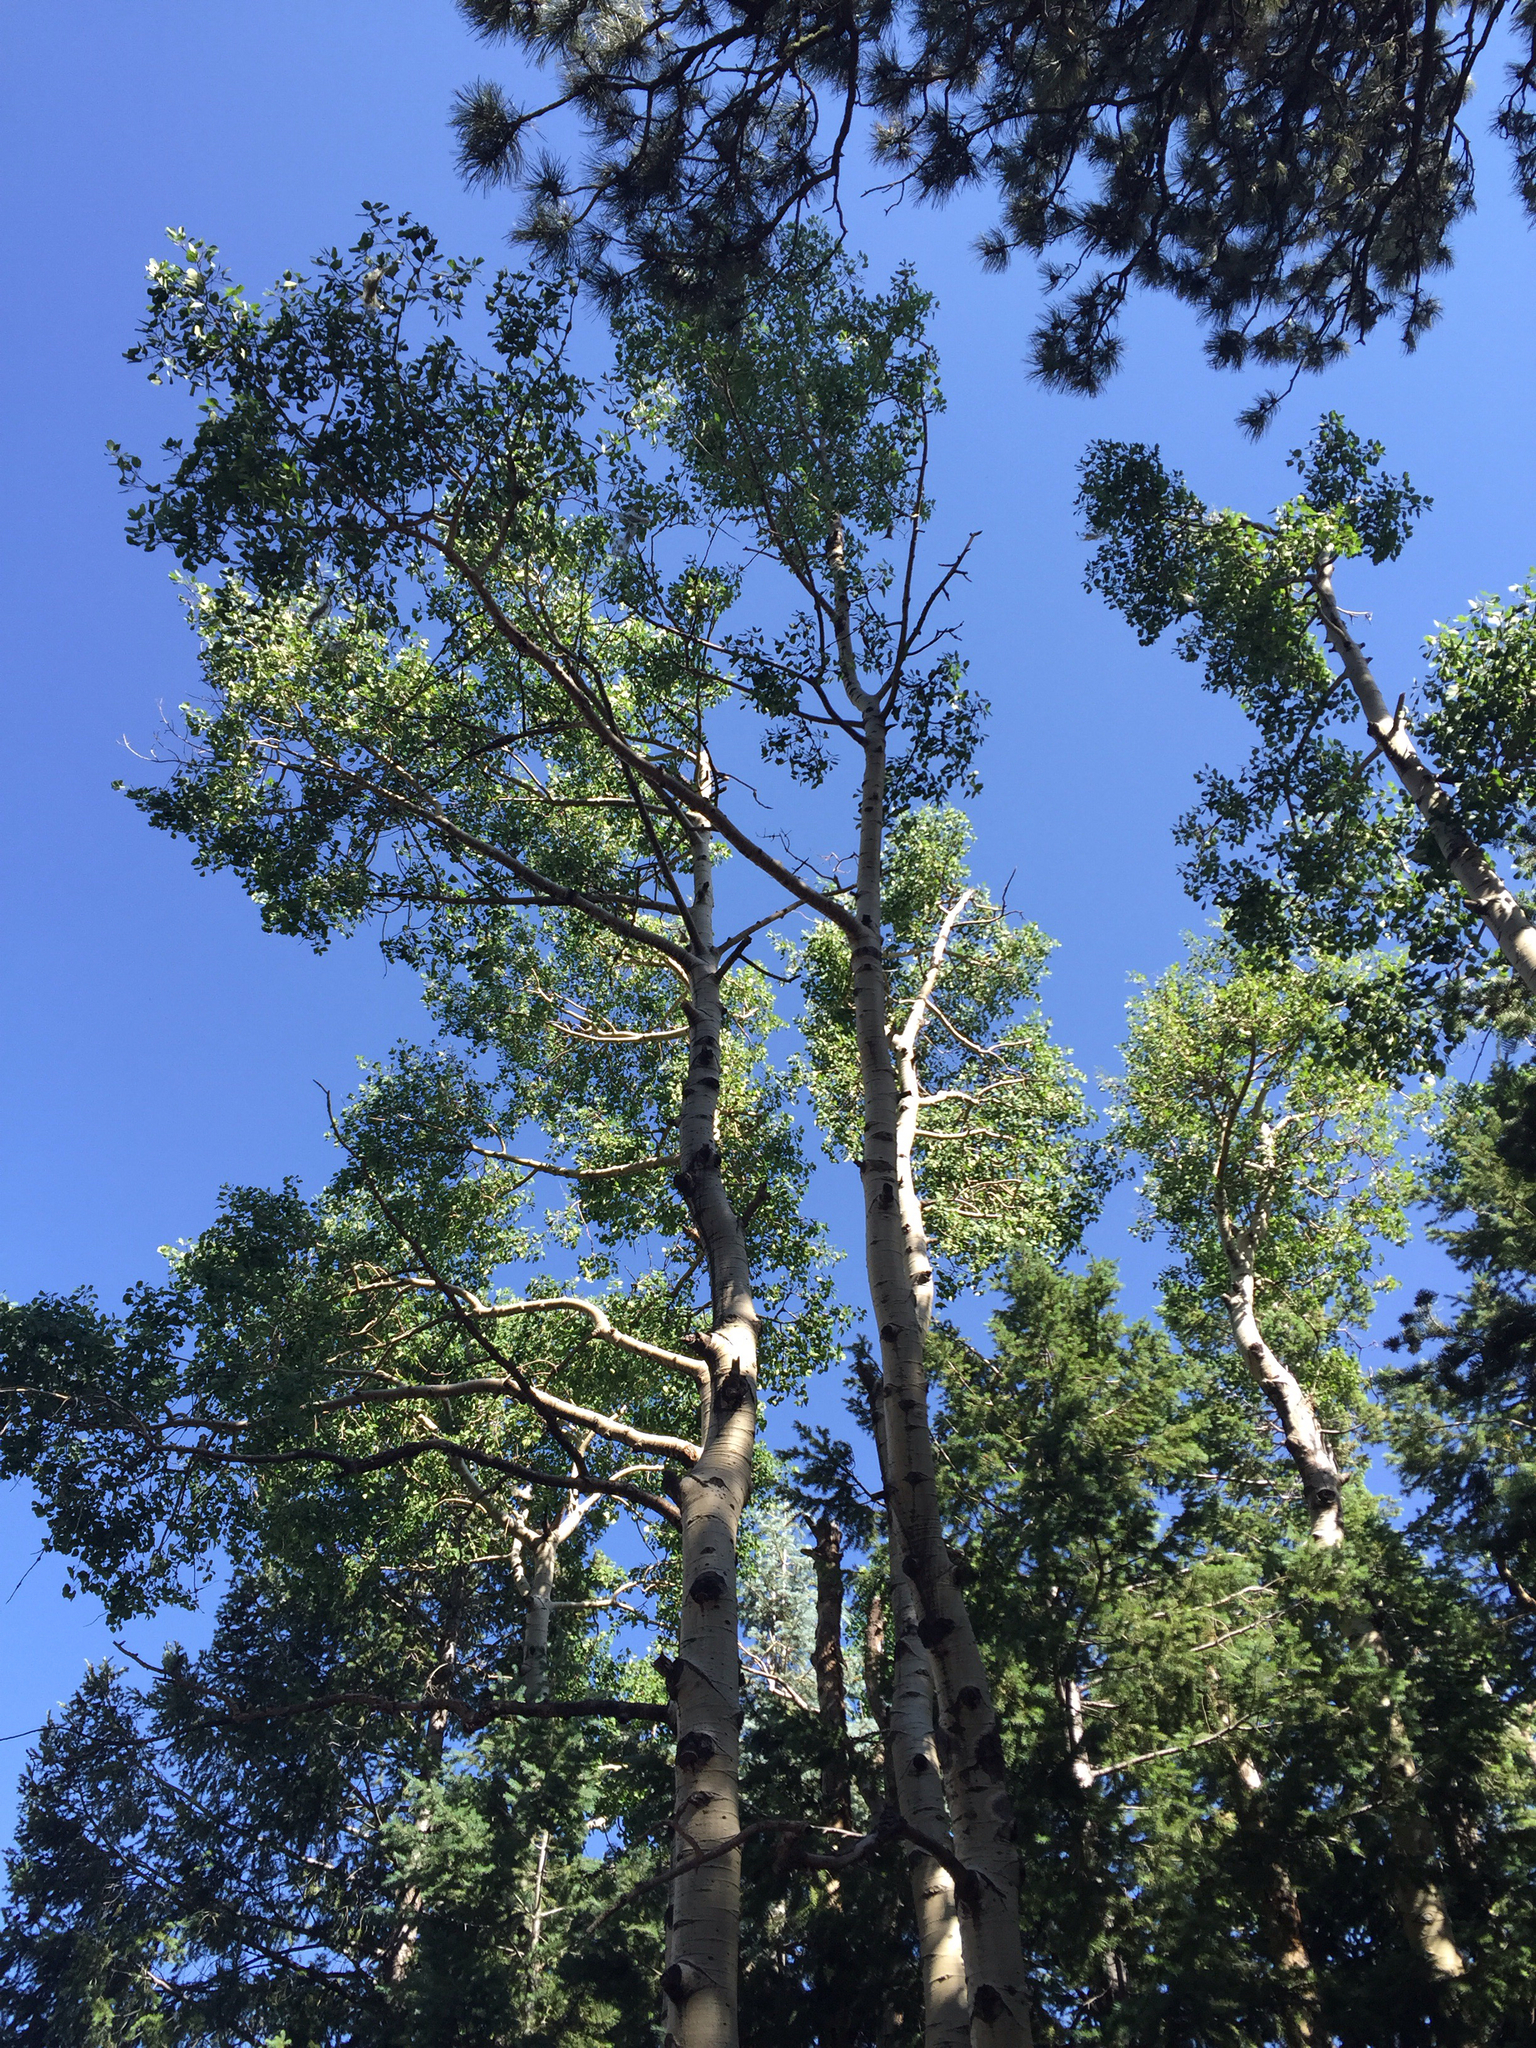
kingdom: Plantae
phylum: Tracheophyta
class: Magnoliopsida
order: Malpighiales
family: Salicaceae
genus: Populus
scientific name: Populus tremuloides
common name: Quaking aspen
